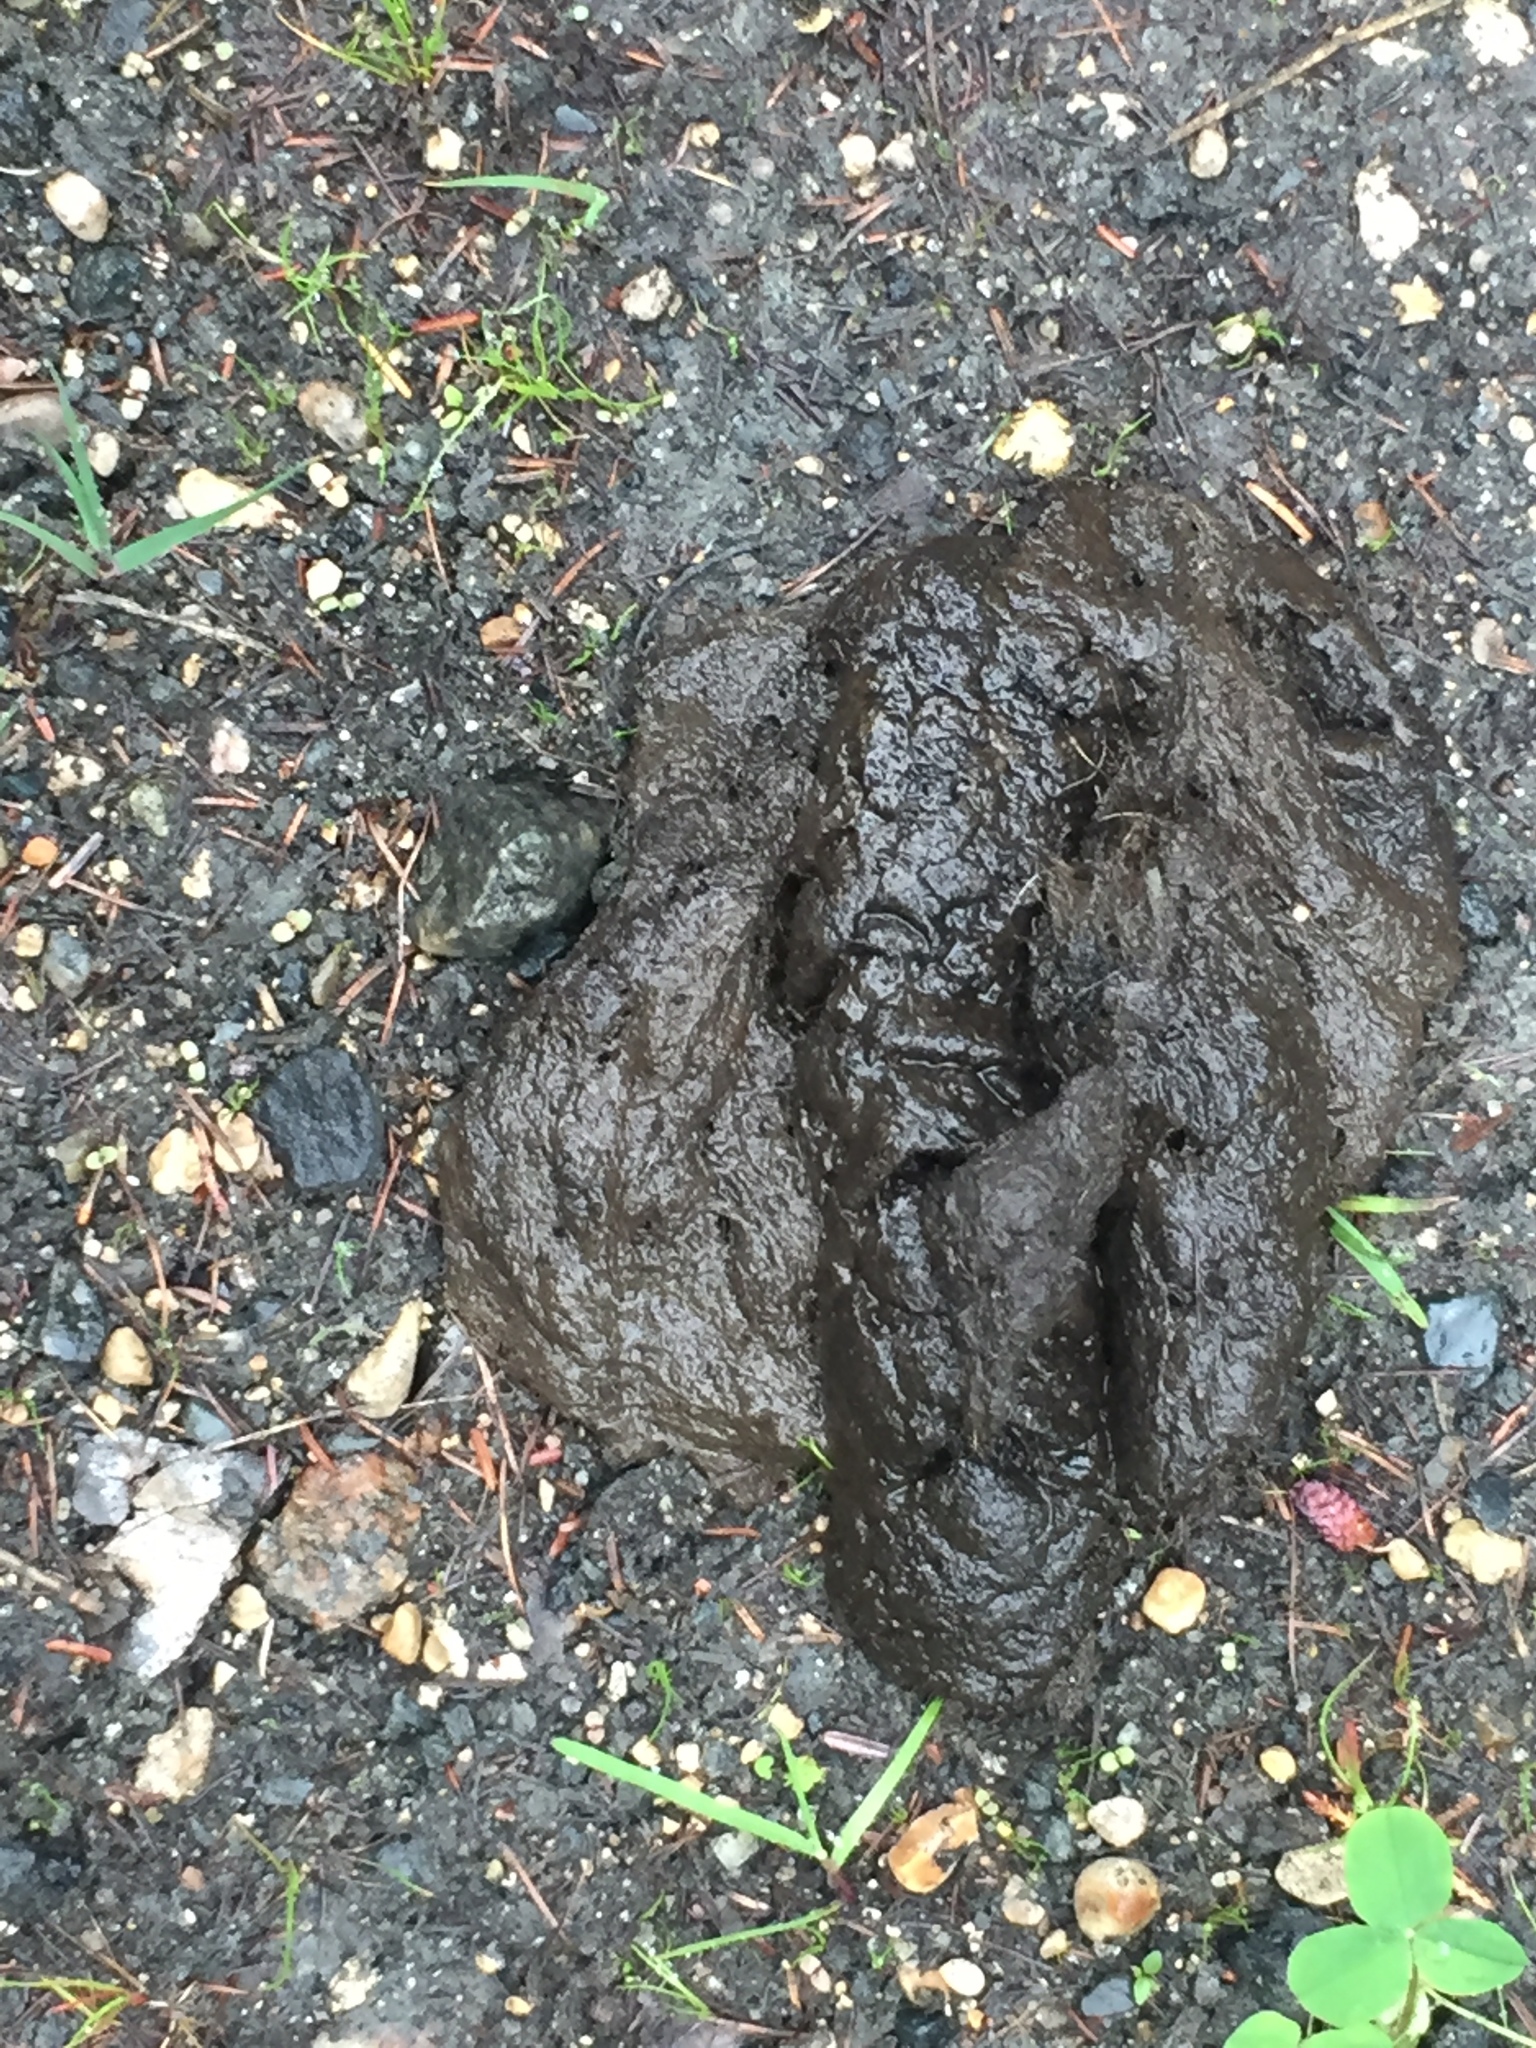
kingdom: Animalia
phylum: Chordata
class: Mammalia
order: Carnivora
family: Ursidae
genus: Ursus
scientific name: Ursus americanus
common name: American black bear
